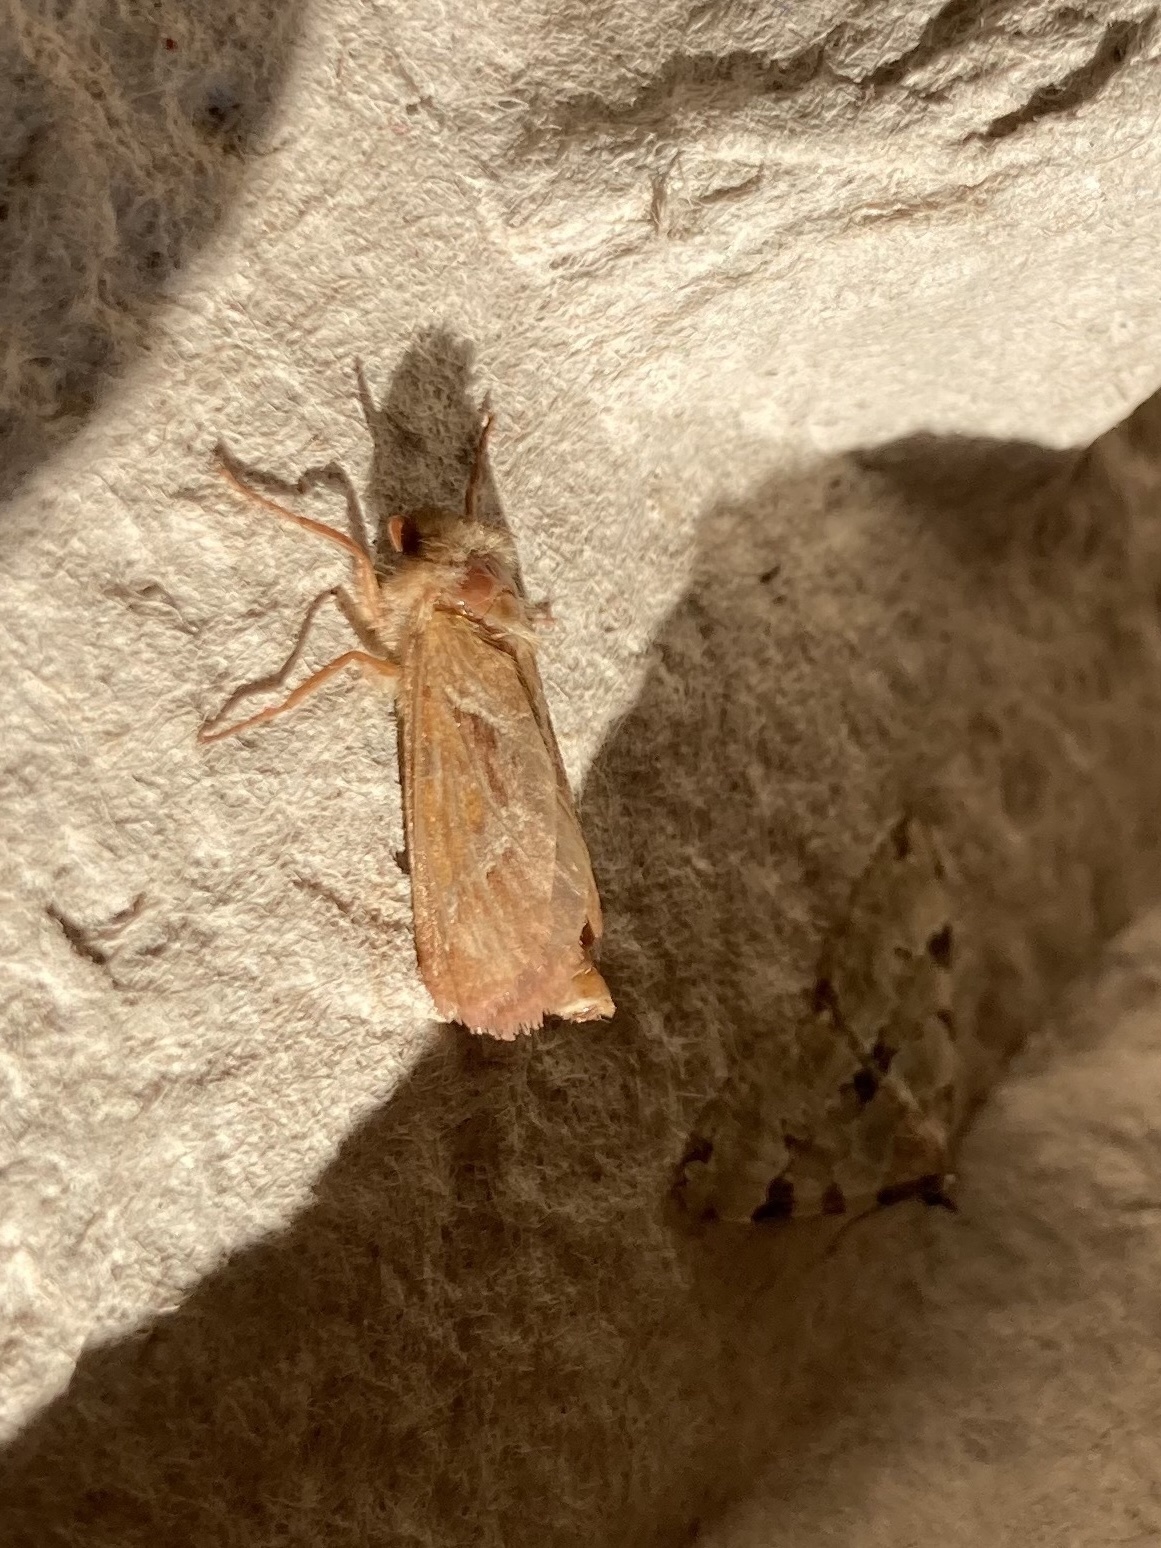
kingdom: Animalia
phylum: Arthropoda
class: Insecta
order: Lepidoptera
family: Hepialidae
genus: Triodia
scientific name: Triodia sylvina
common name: Orange swift
